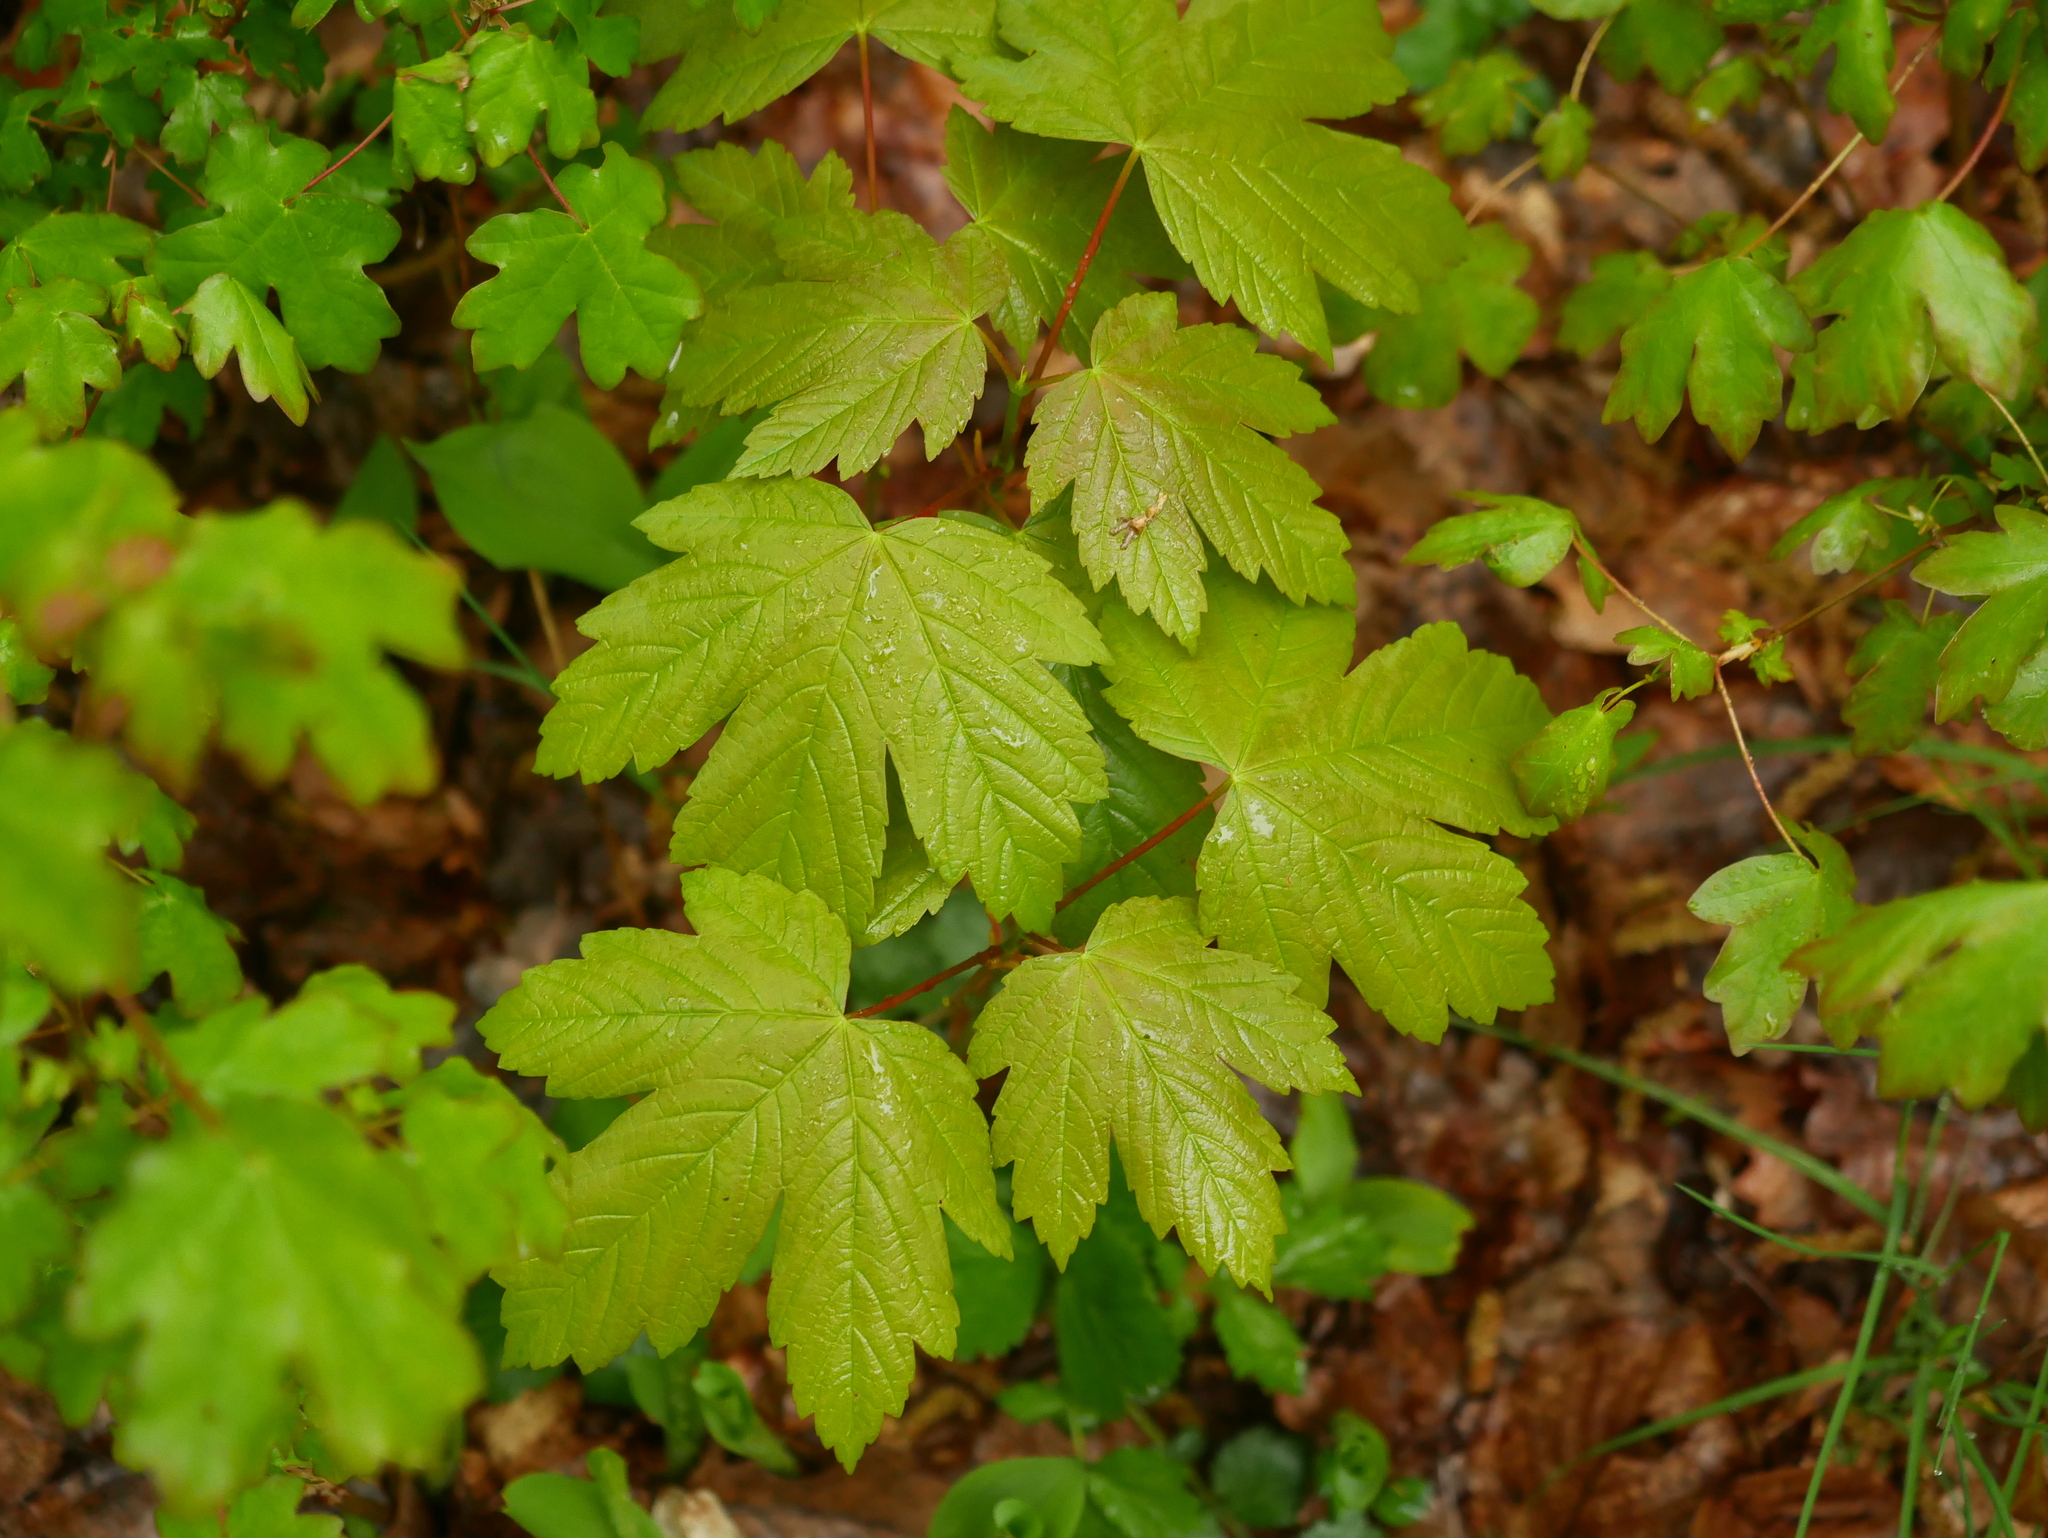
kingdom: Plantae
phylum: Tracheophyta
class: Magnoliopsida
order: Sapindales
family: Sapindaceae
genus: Acer
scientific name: Acer pseudoplatanus
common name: Sycamore
